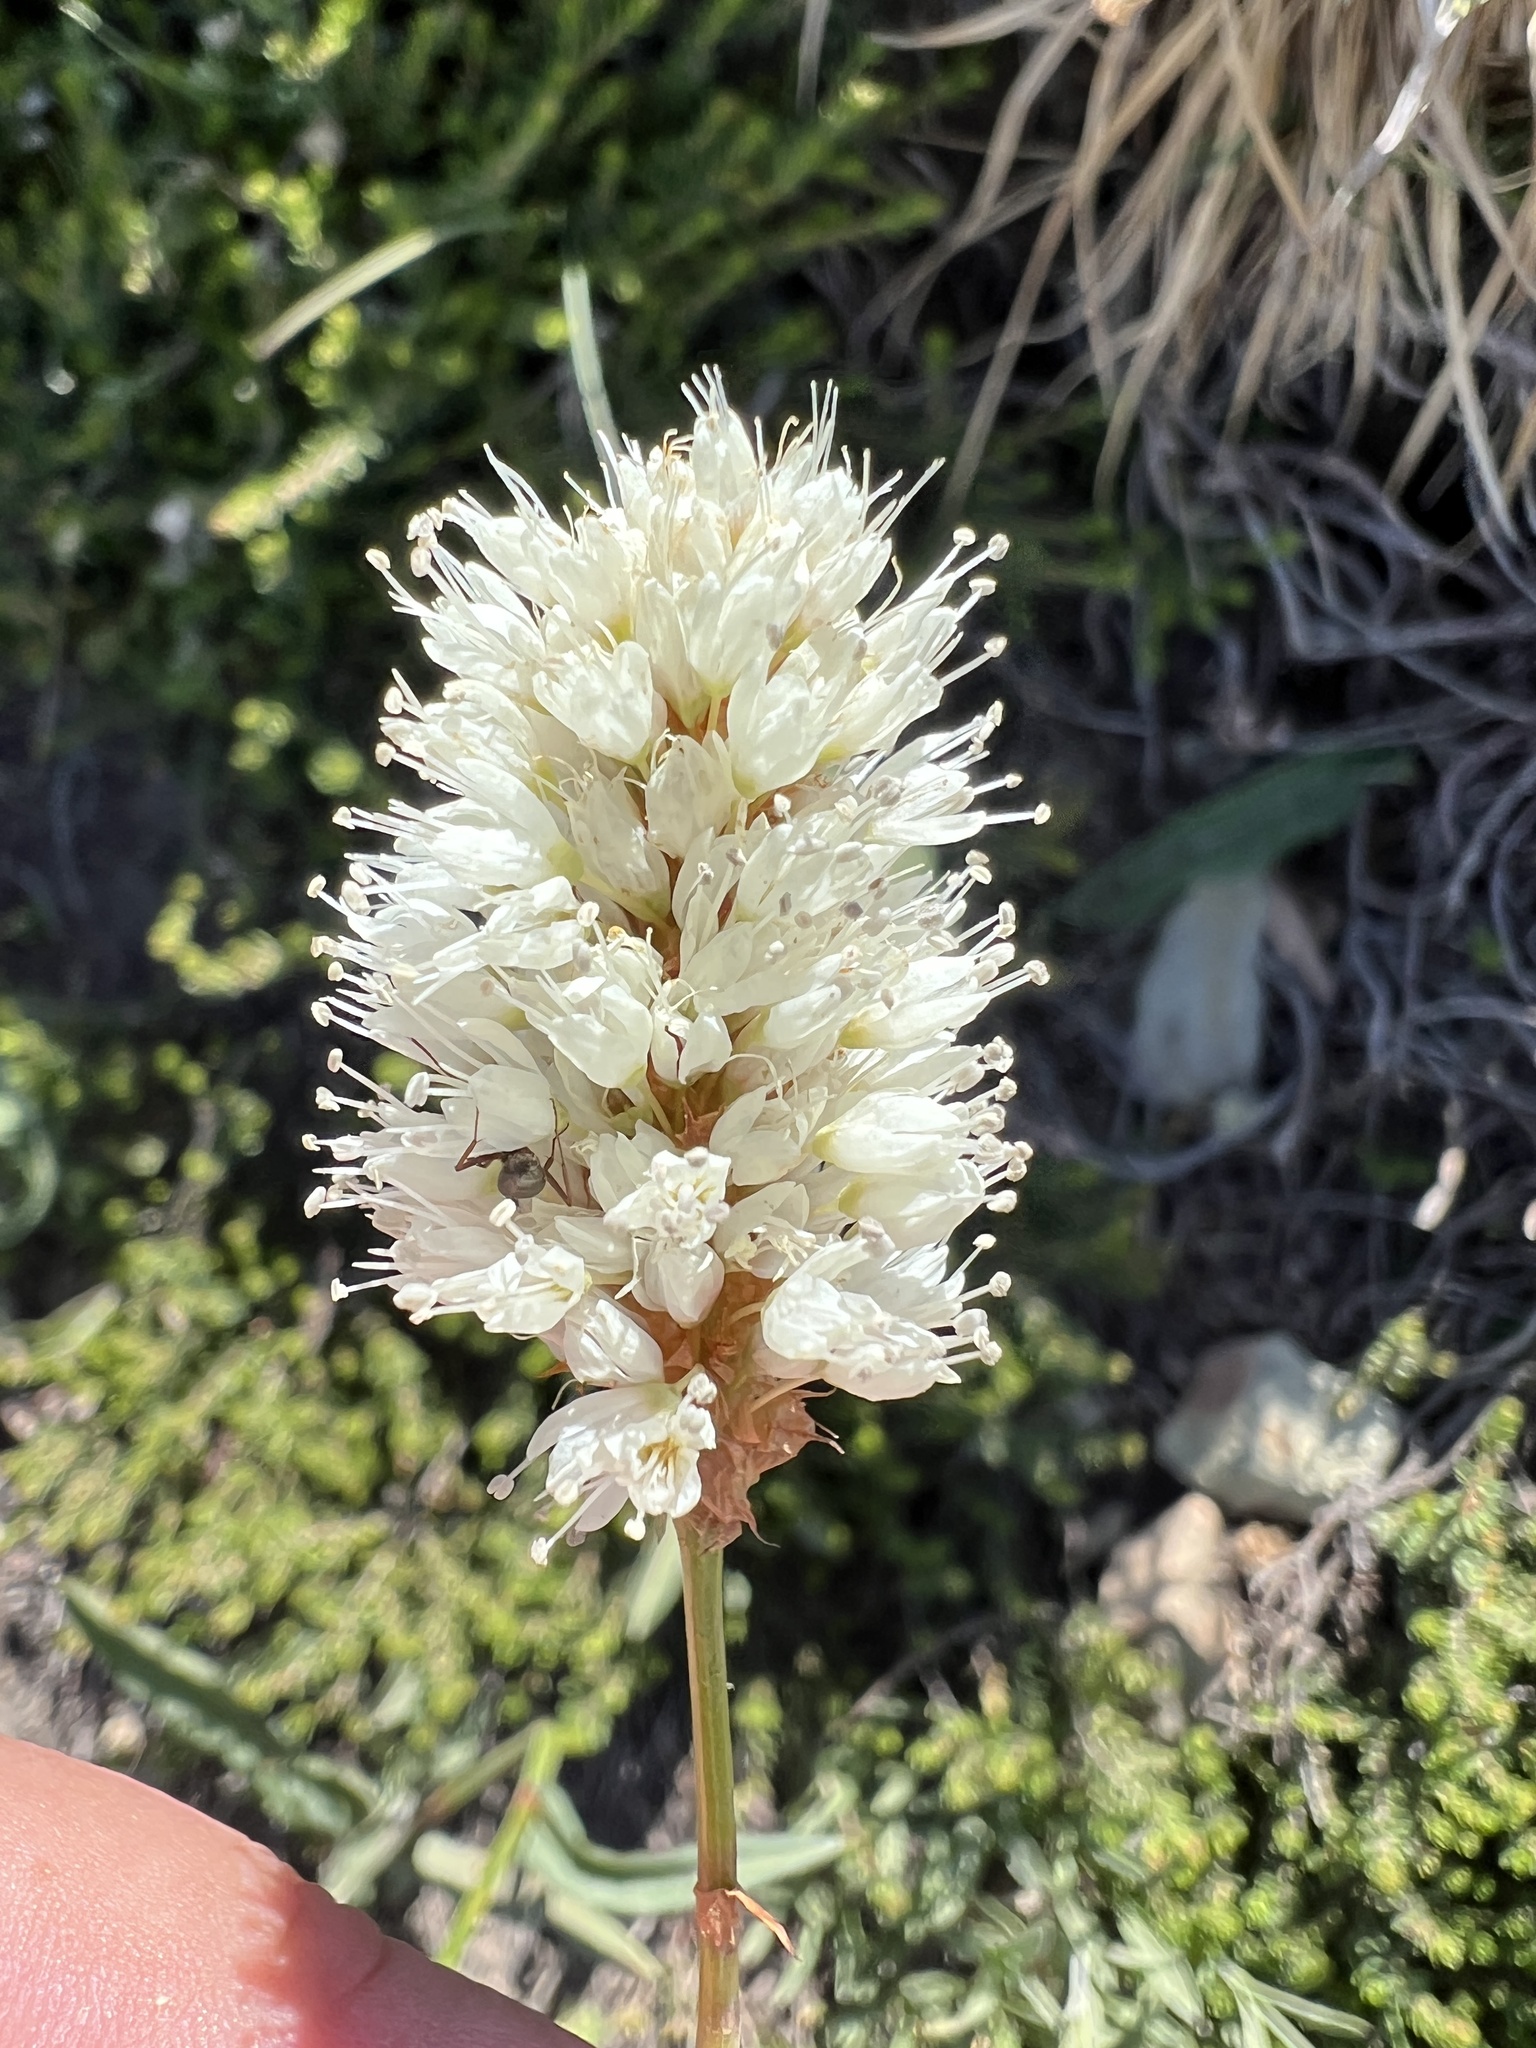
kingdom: Plantae
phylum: Tracheophyta
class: Magnoliopsida
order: Caryophyllales
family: Polygonaceae
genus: Bistorta
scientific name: Bistorta bistortoides
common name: American bistort
